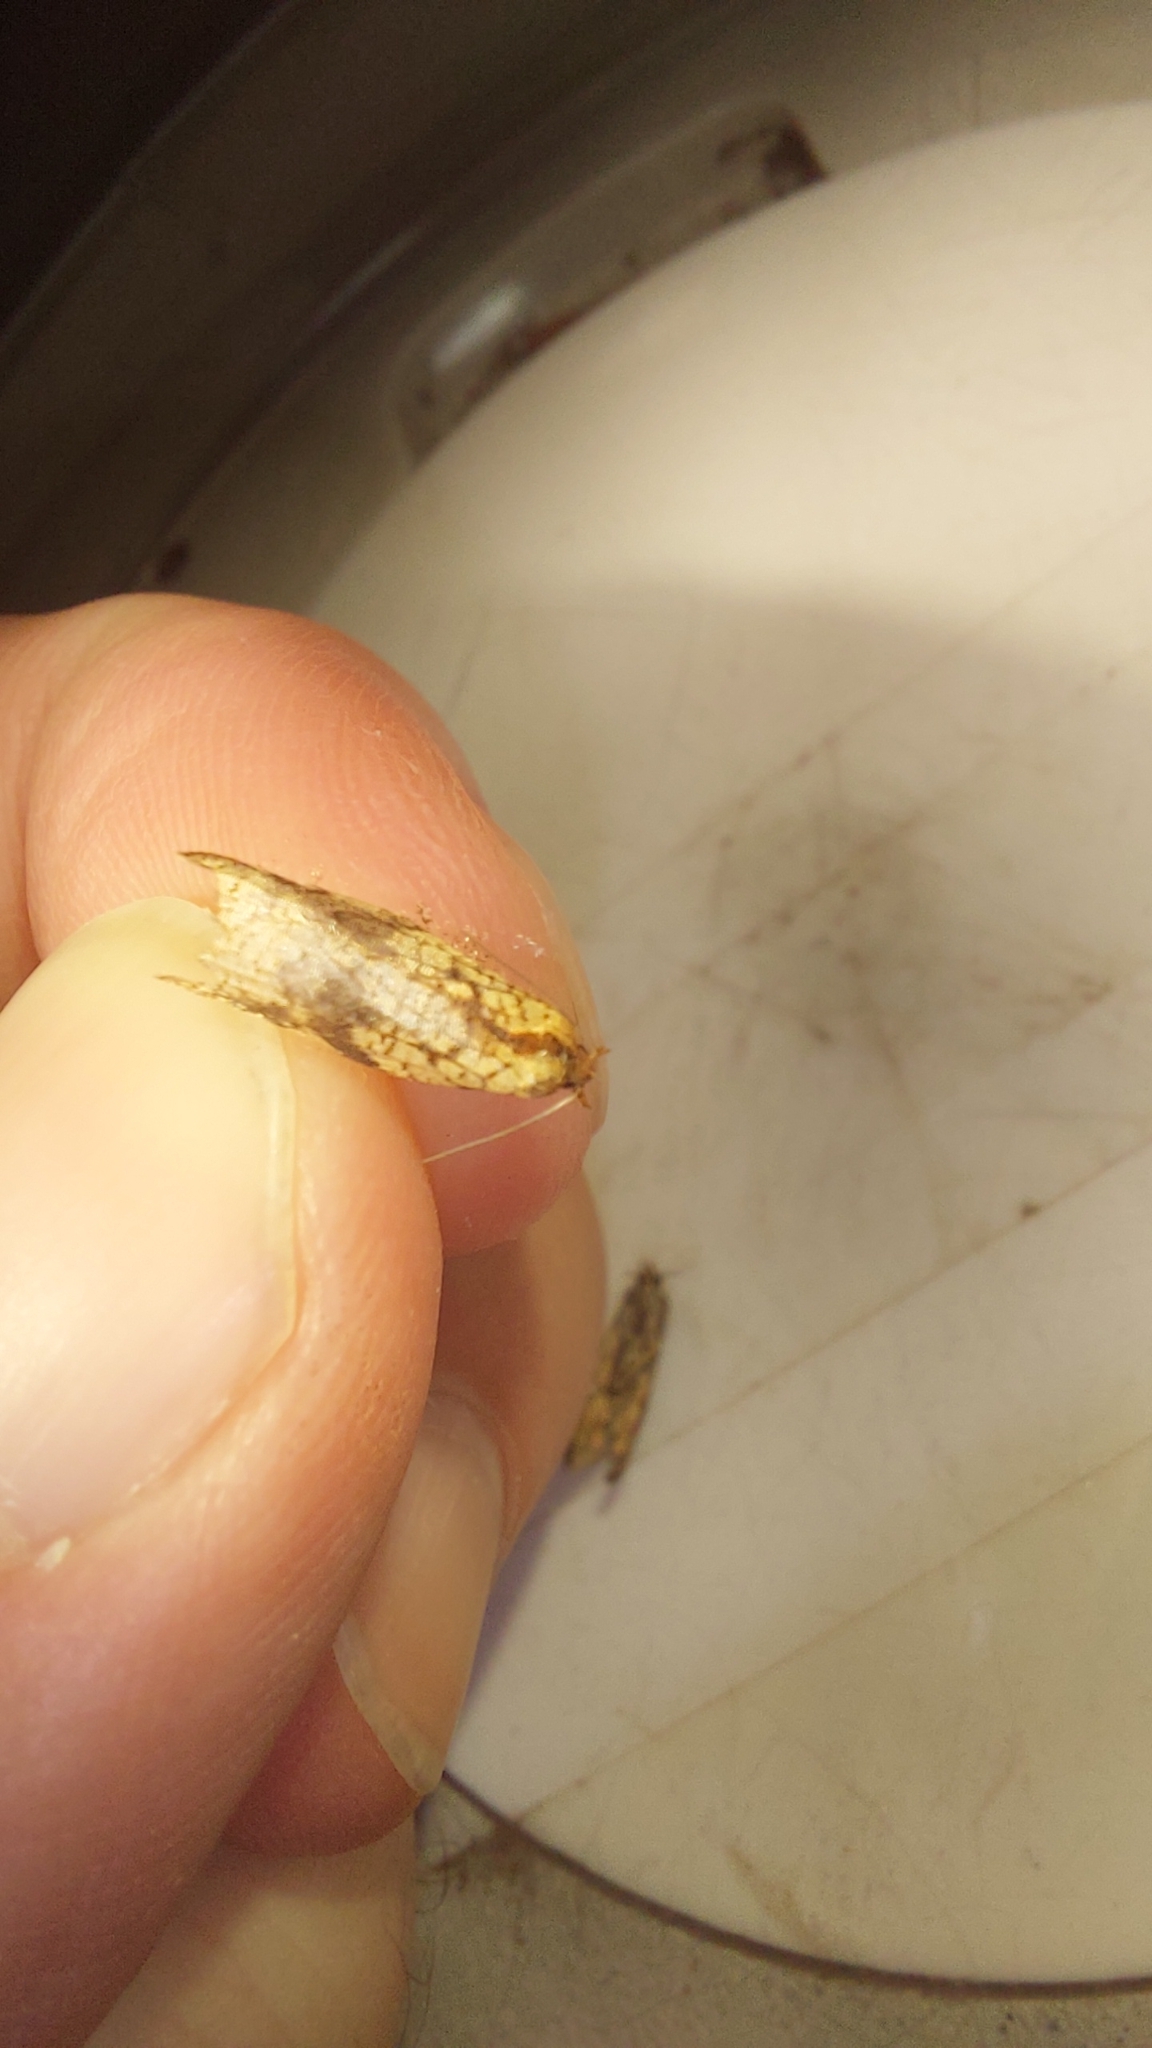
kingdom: Animalia
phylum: Arthropoda
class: Insecta
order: Lepidoptera
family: Tortricidae
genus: Acleris
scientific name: Acleris rhombana
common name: Tortricid moth
